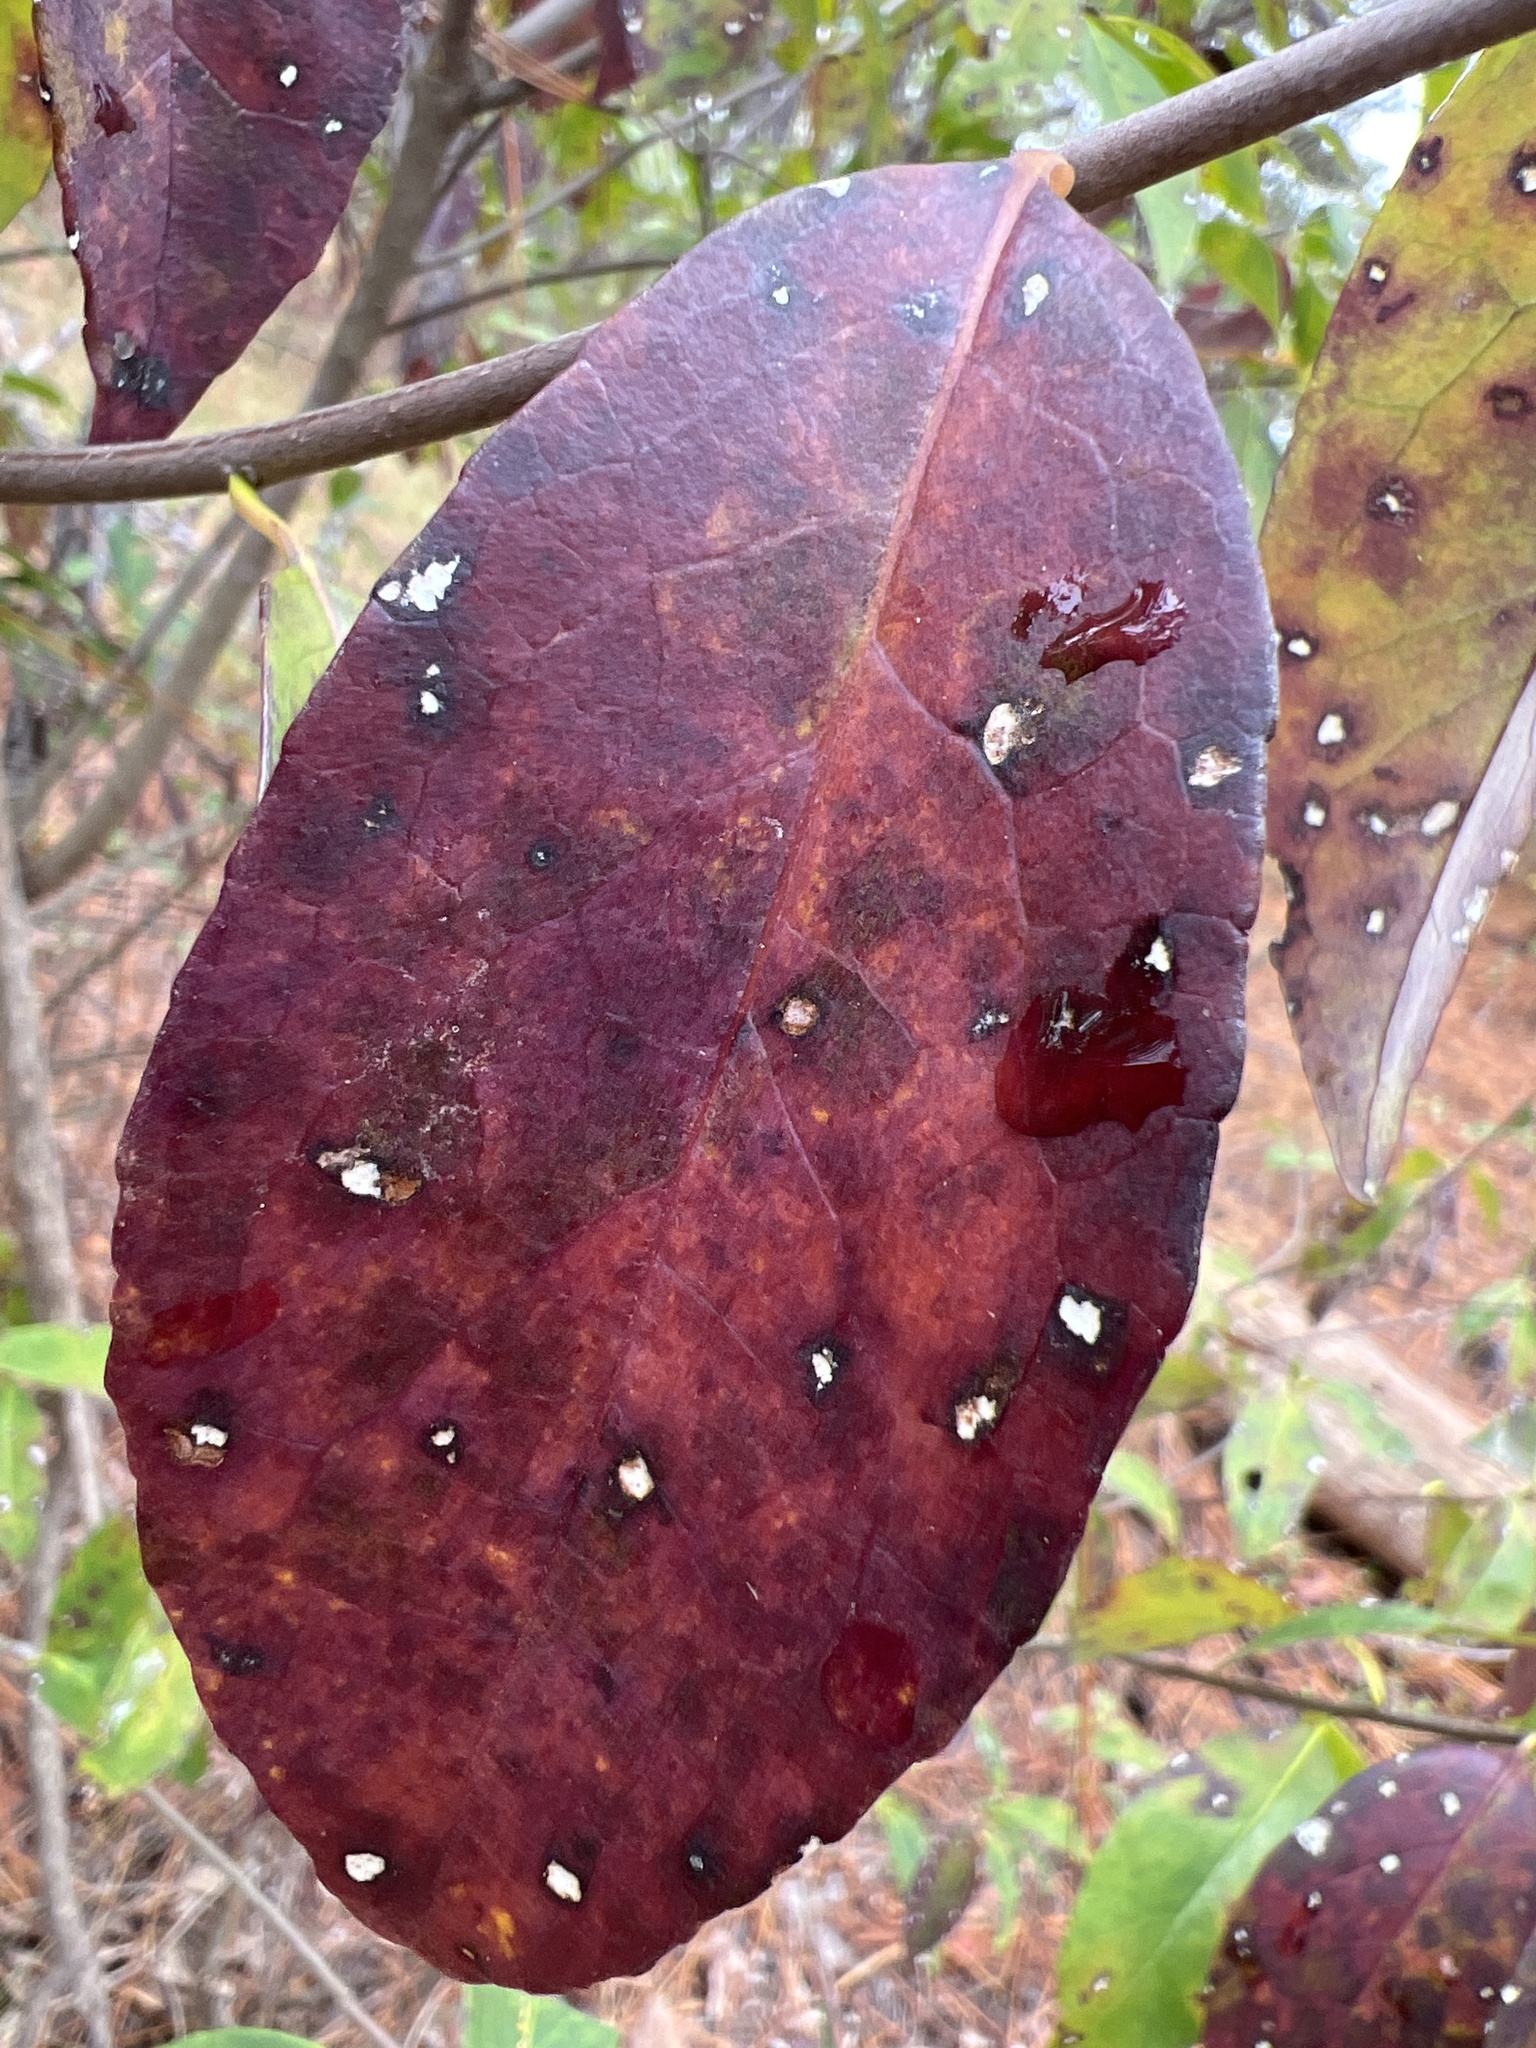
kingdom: Plantae
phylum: Tracheophyta
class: Magnoliopsida
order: Ericales
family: Symplocaceae
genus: Symplocos
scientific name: Symplocos tinctoria
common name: Horse-sugar
